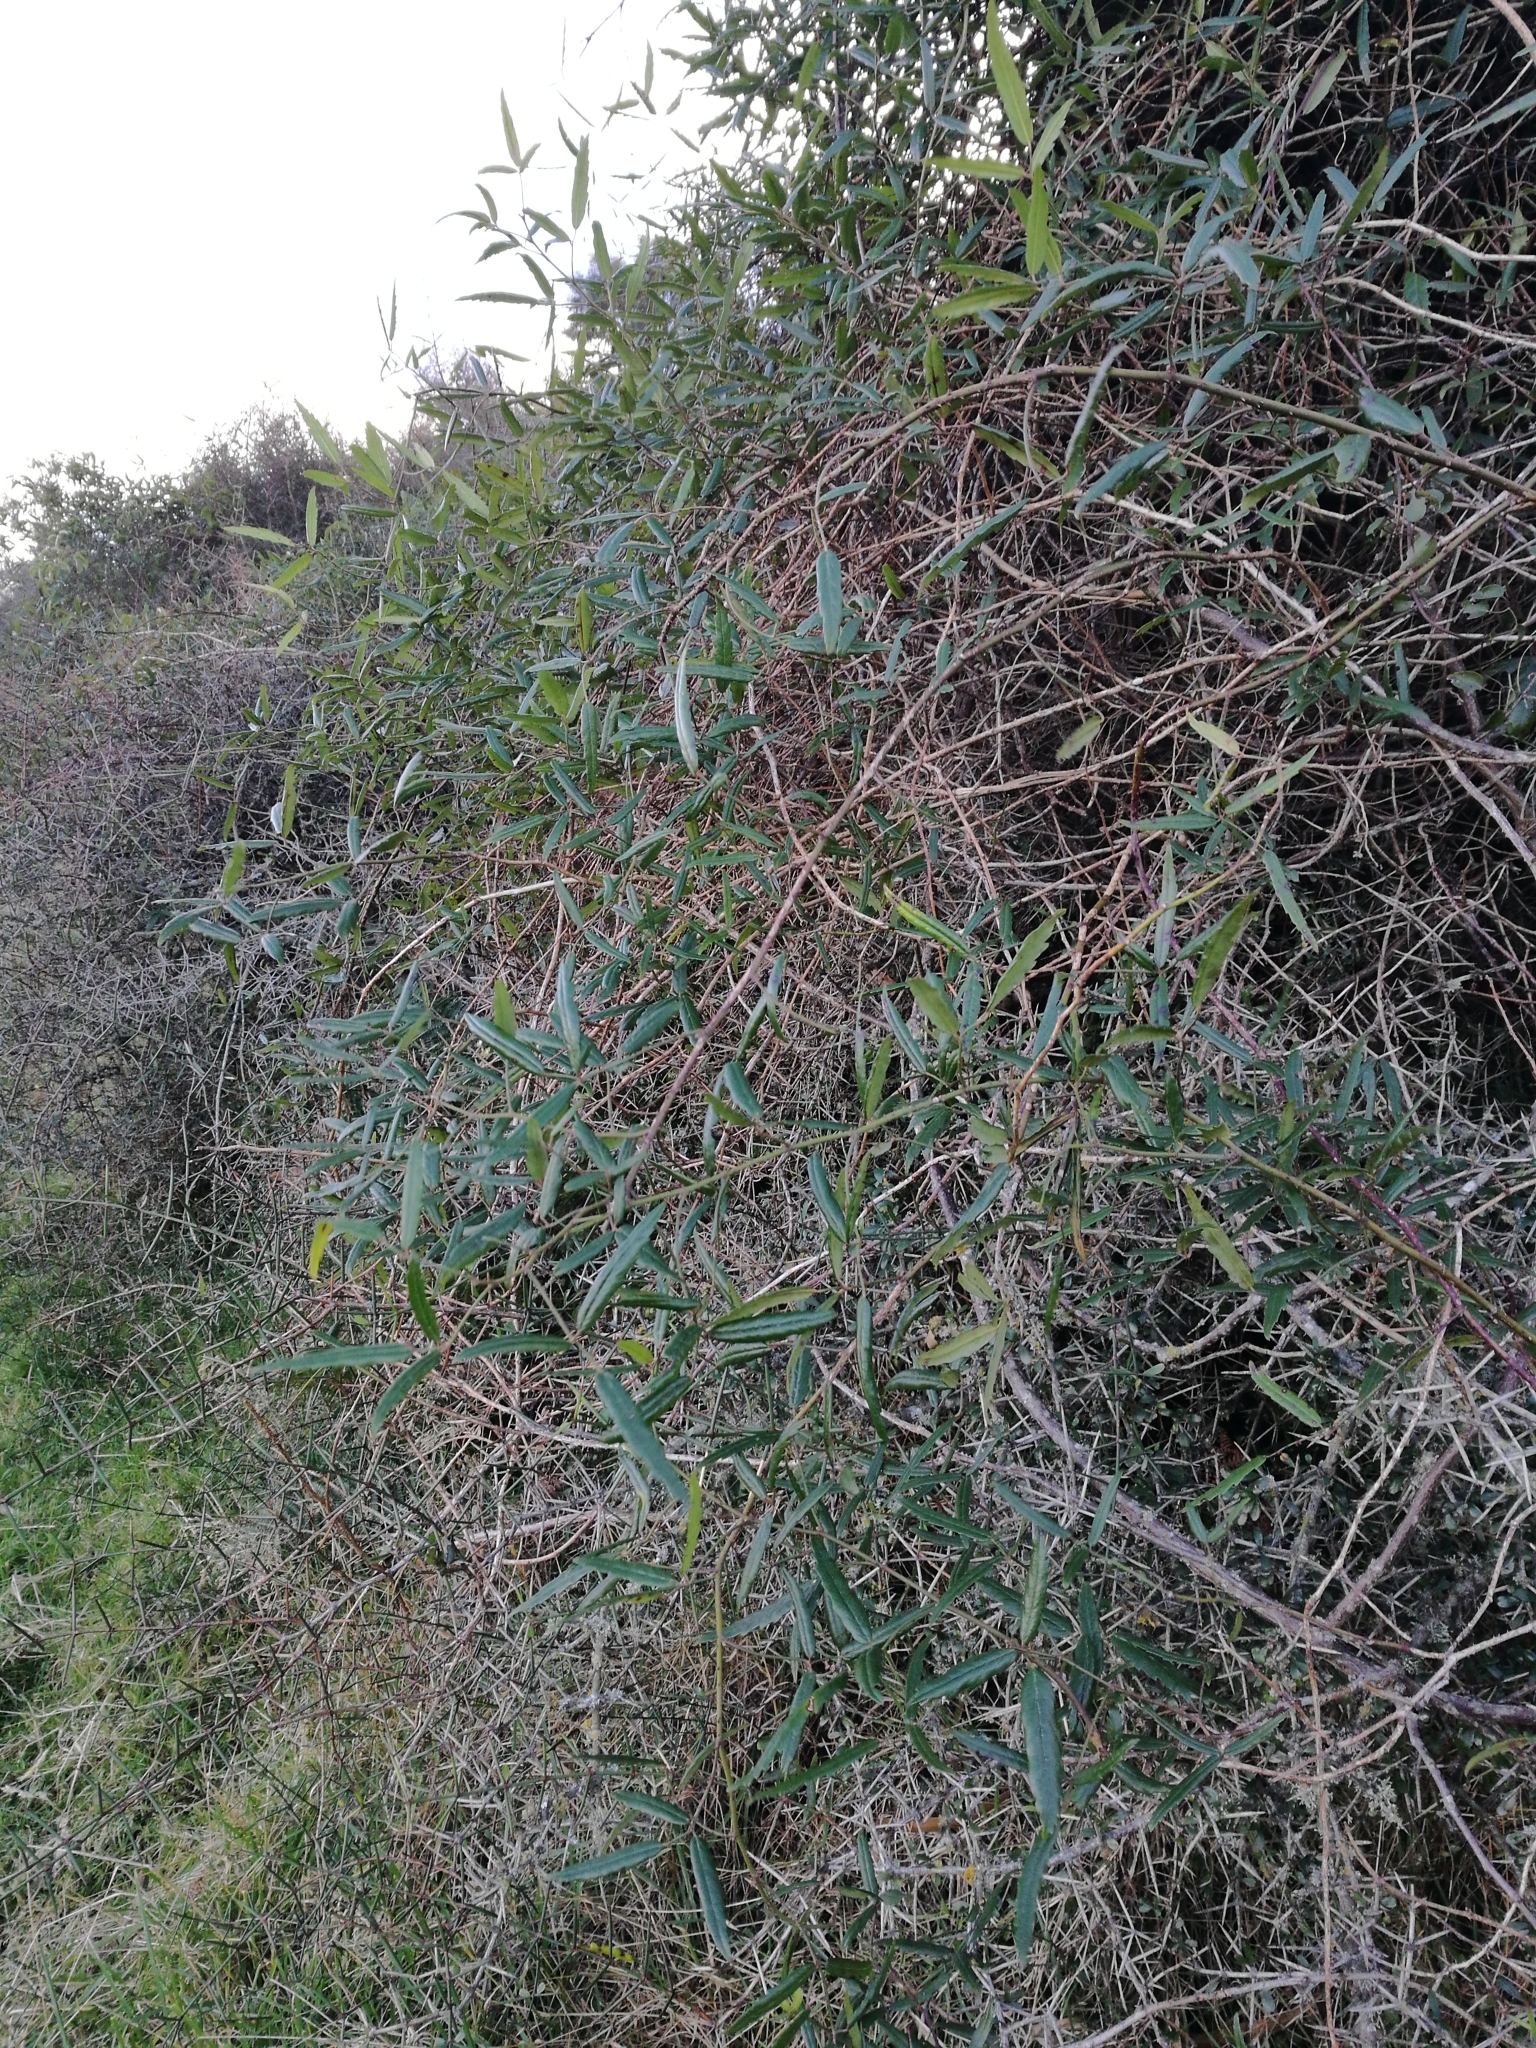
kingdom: Plantae
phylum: Tracheophyta
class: Magnoliopsida
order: Rosales
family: Rosaceae
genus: Rubus
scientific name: Rubus schmidelioides
